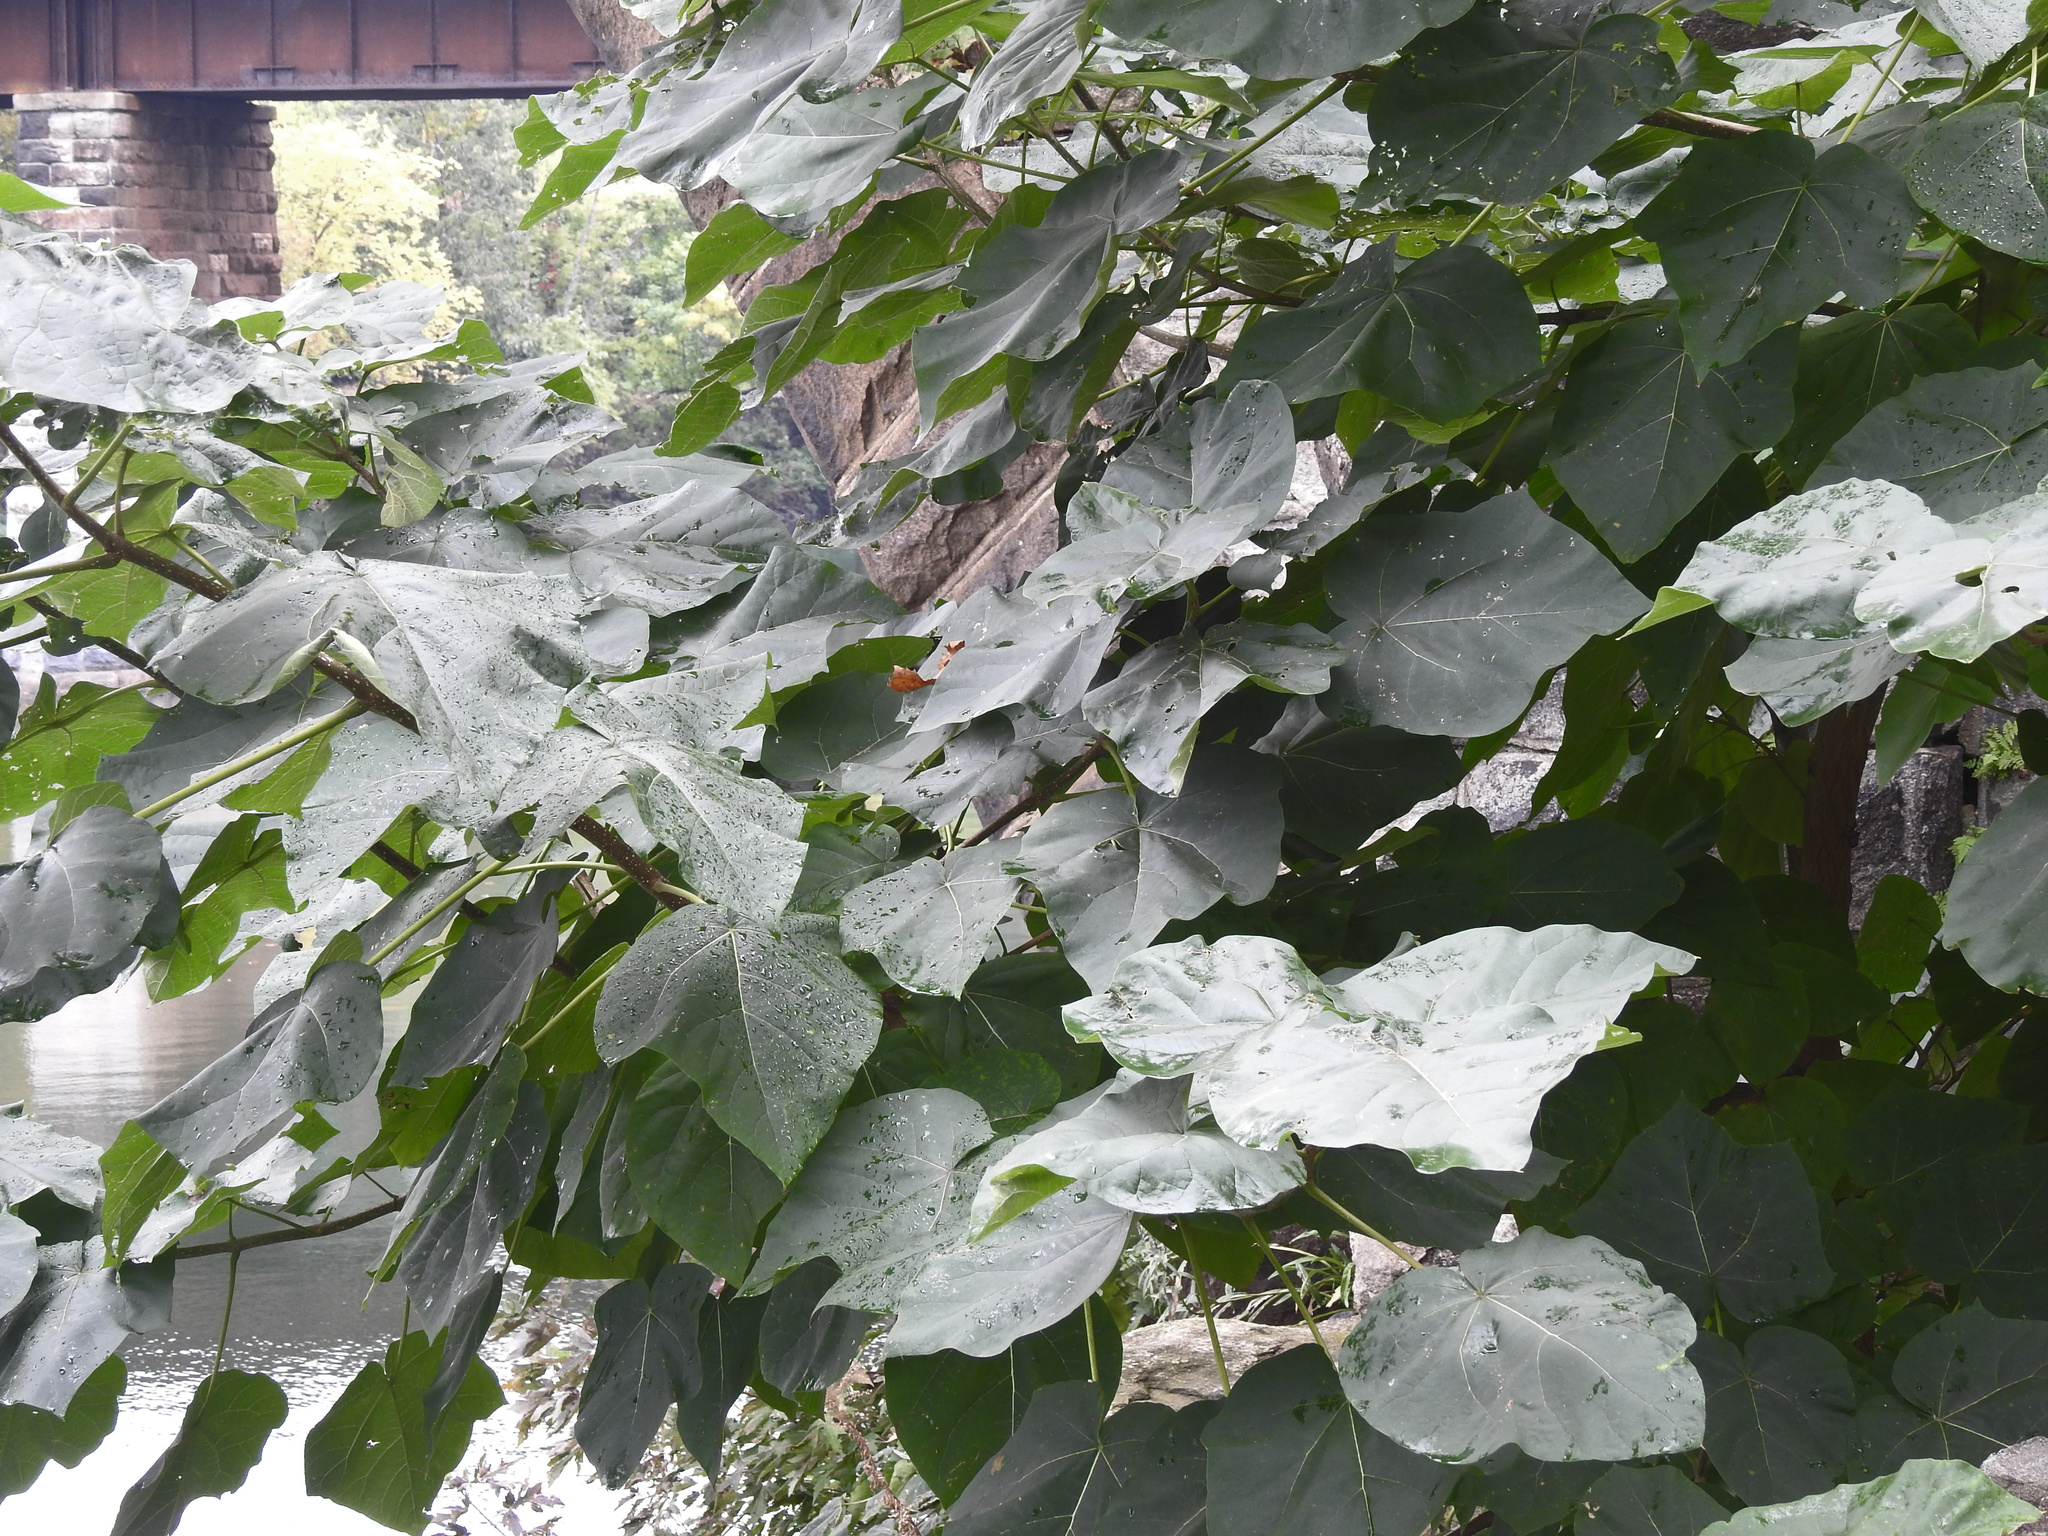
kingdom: Plantae
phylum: Tracheophyta
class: Magnoliopsida
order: Lamiales
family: Paulowniaceae
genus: Paulownia
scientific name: Paulownia tomentosa
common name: Foxglove-tree
